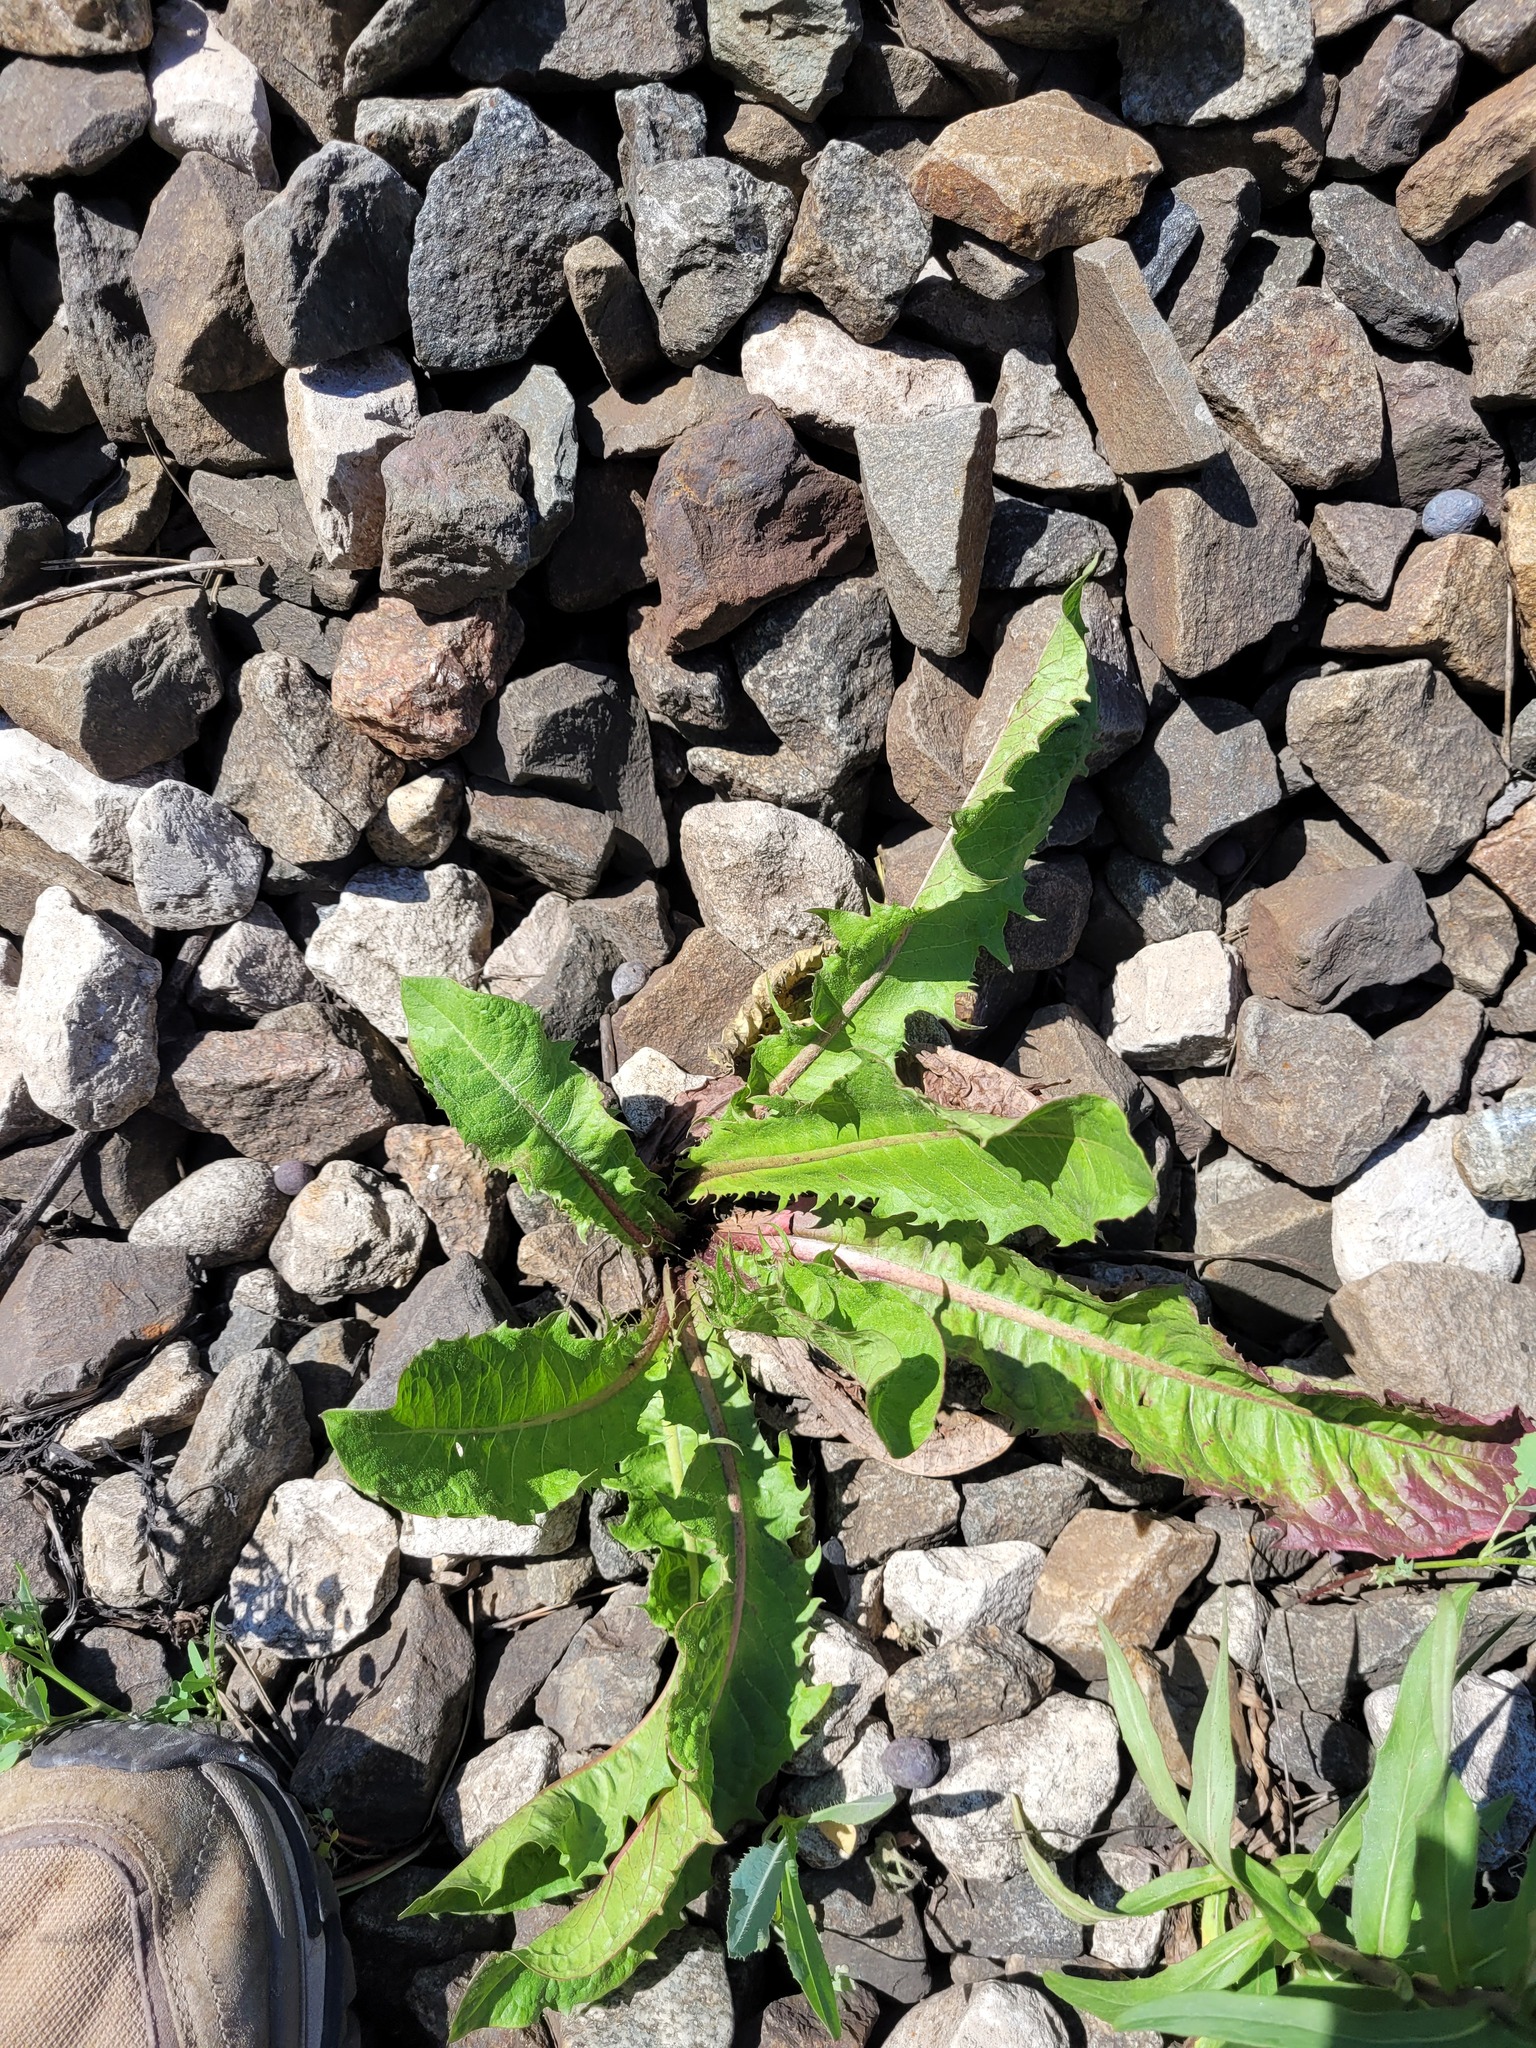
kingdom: Plantae
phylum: Tracheophyta
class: Magnoliopsida
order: Asterales
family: Asteraceae
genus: Taraxacum
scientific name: Taraxacum officinale
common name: Common dandelion
